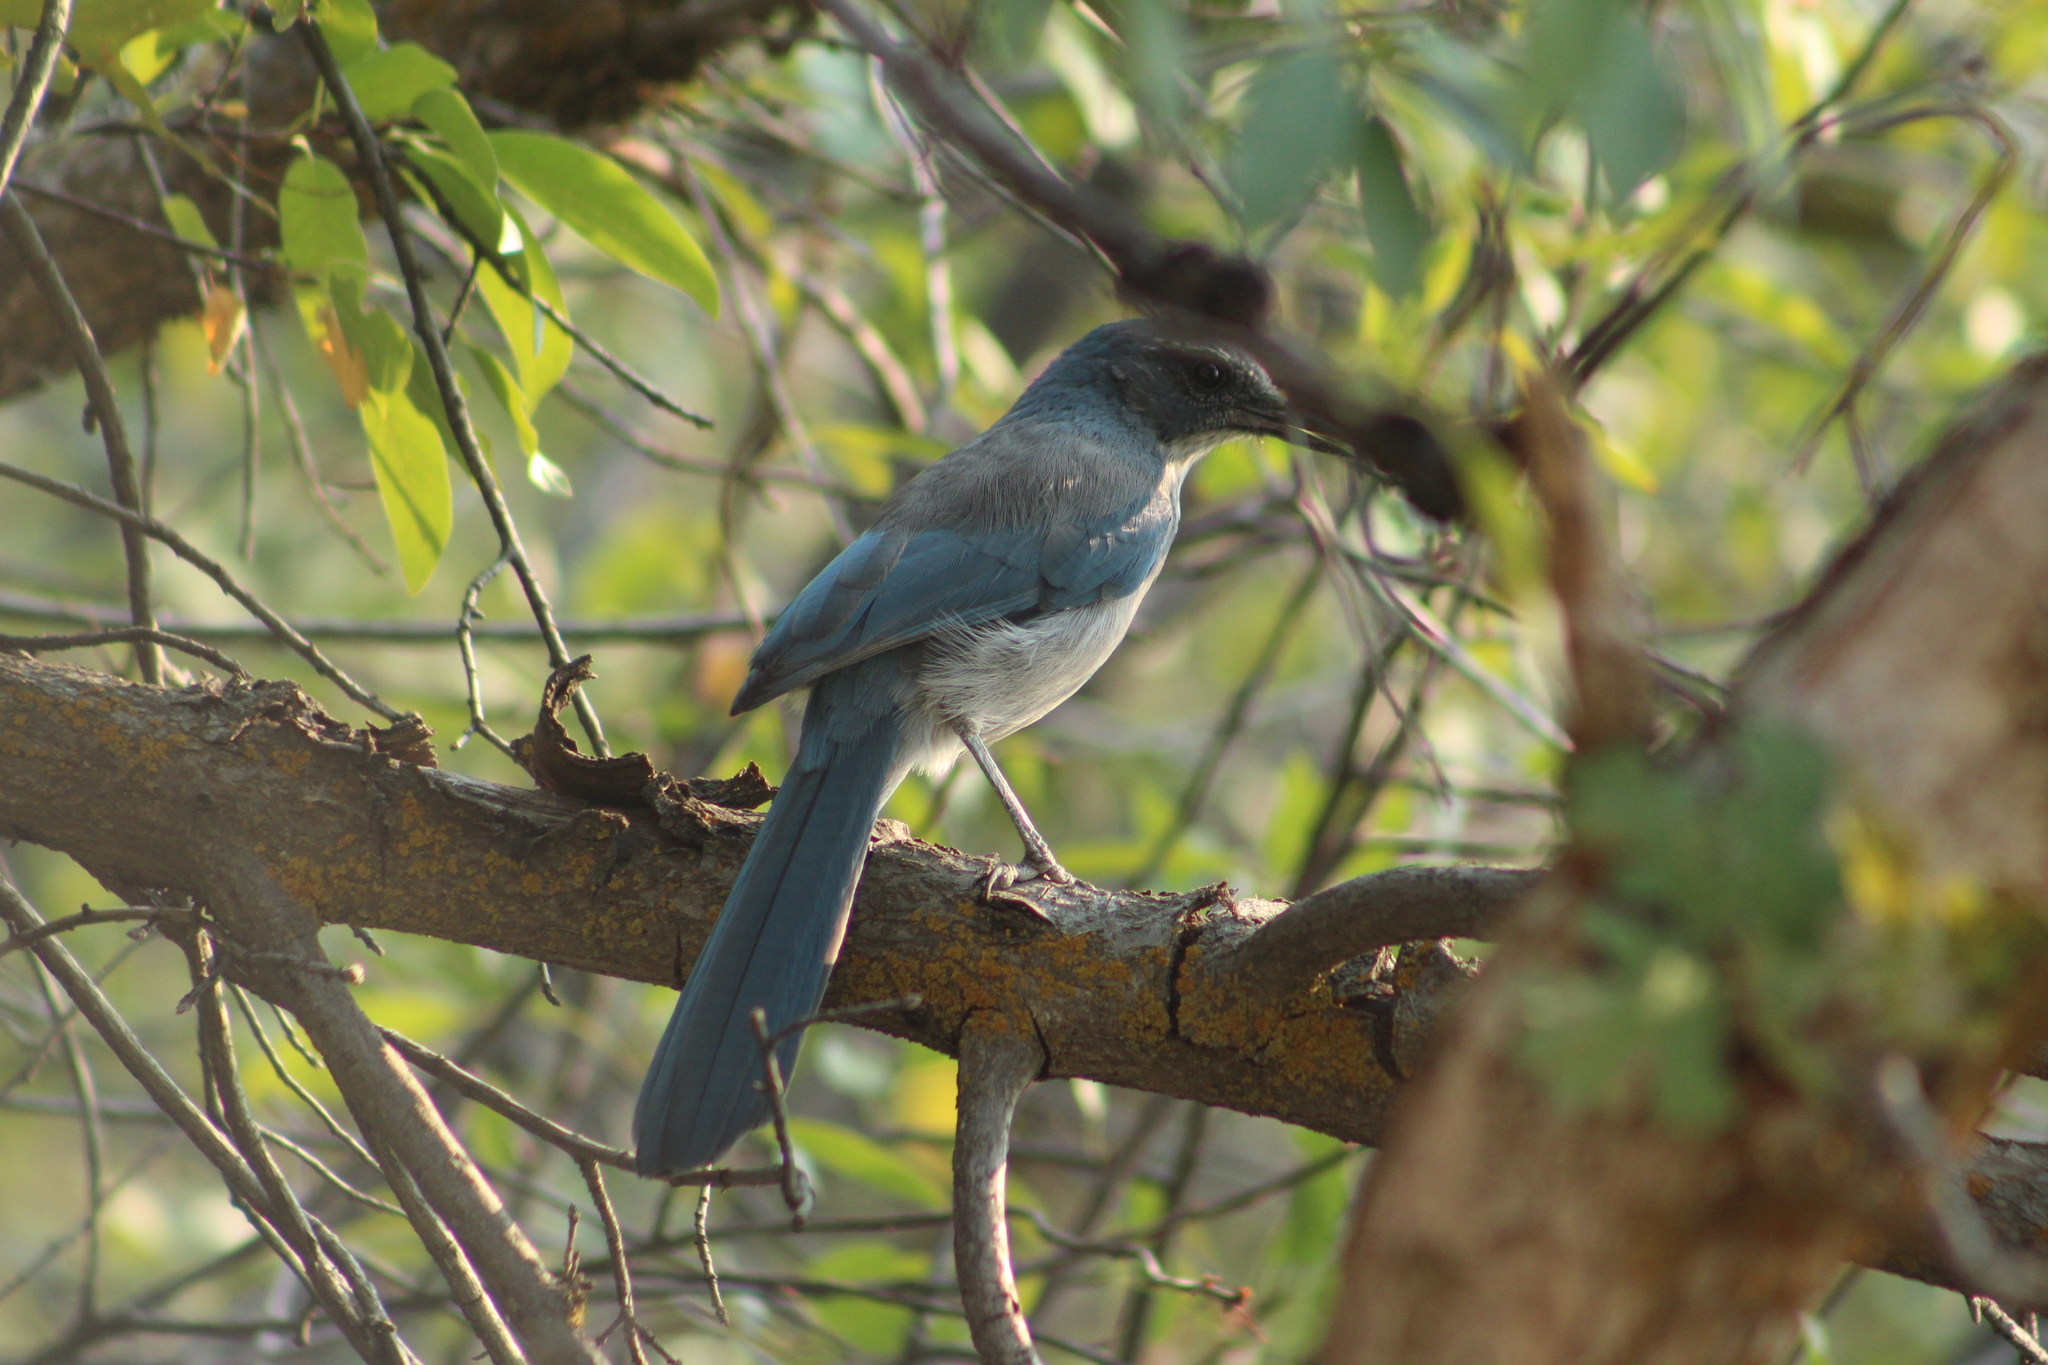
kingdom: Animalia
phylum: Chordata
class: Aves
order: Passeriformes
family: Corvidae
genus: Aphelocoma
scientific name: Aphelocoma woodhouseii
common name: Woodhouse's scrub-jay
